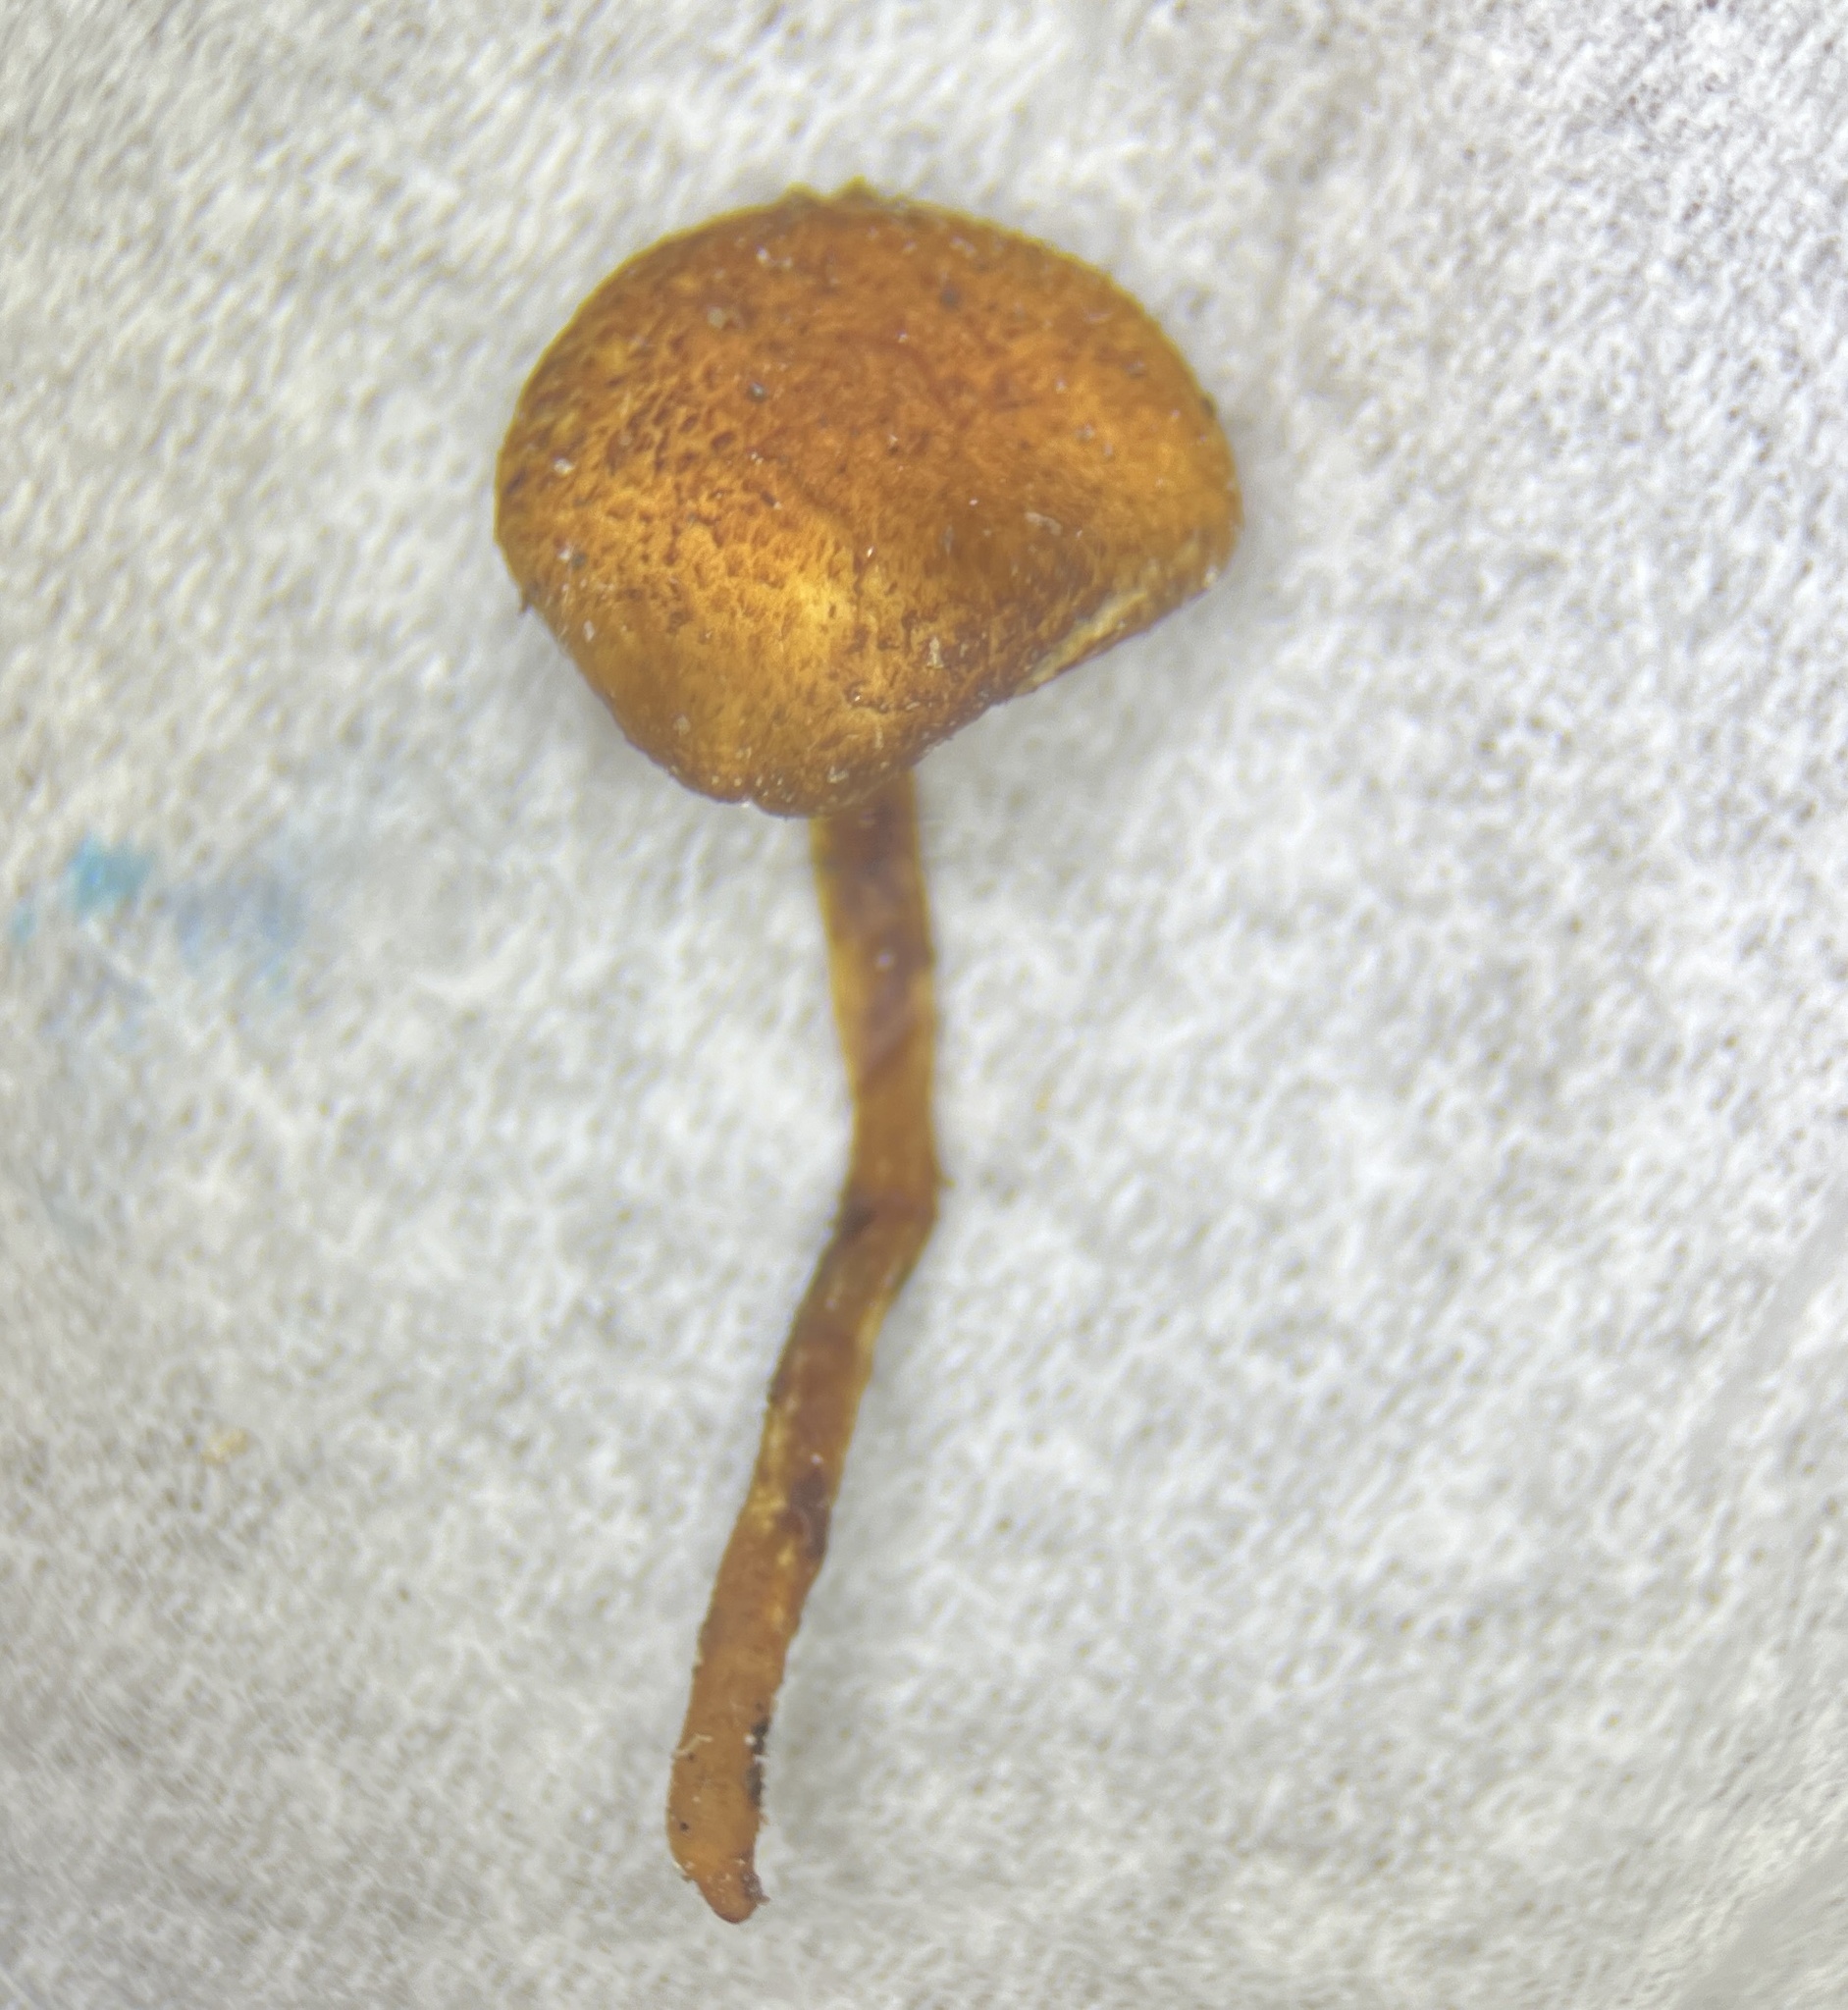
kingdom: Fungi
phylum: Basidiomycota
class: Agaricomycetes
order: Agaricales
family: Tubariaceae
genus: Phaeomarasmius
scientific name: Phaeomarasmius proximans
